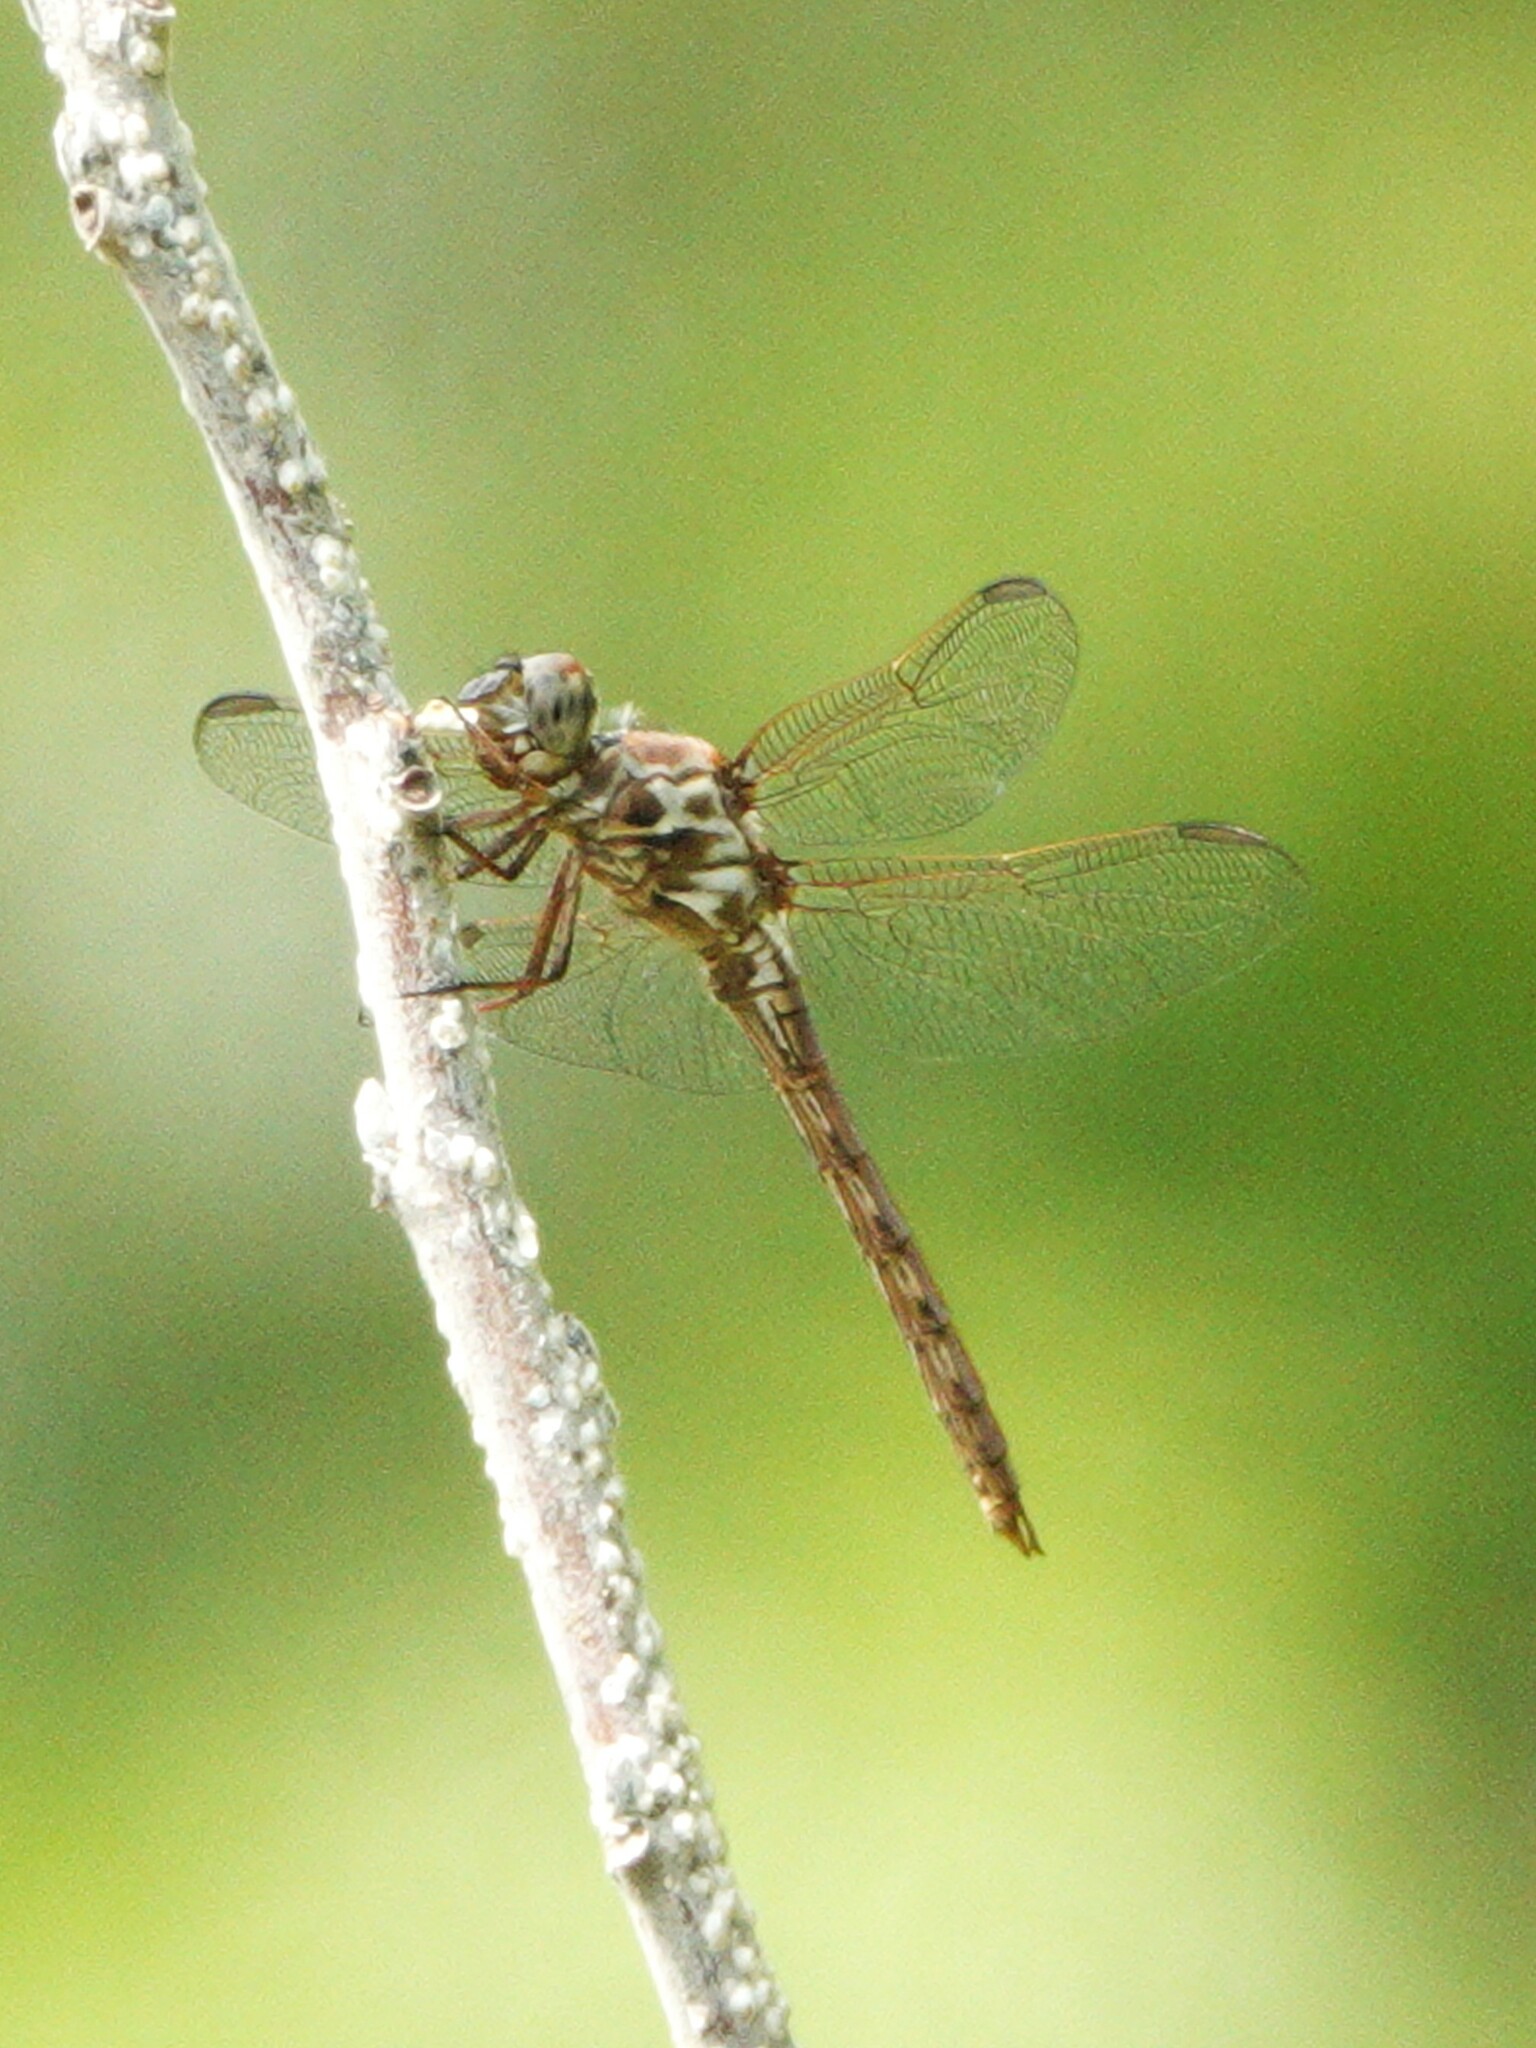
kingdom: Animalia
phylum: Arthropoda
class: Insecta
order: Odonata
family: Libellulidae
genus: Orthemis
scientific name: Orthemis ferruginea
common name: Roseate skimmer
